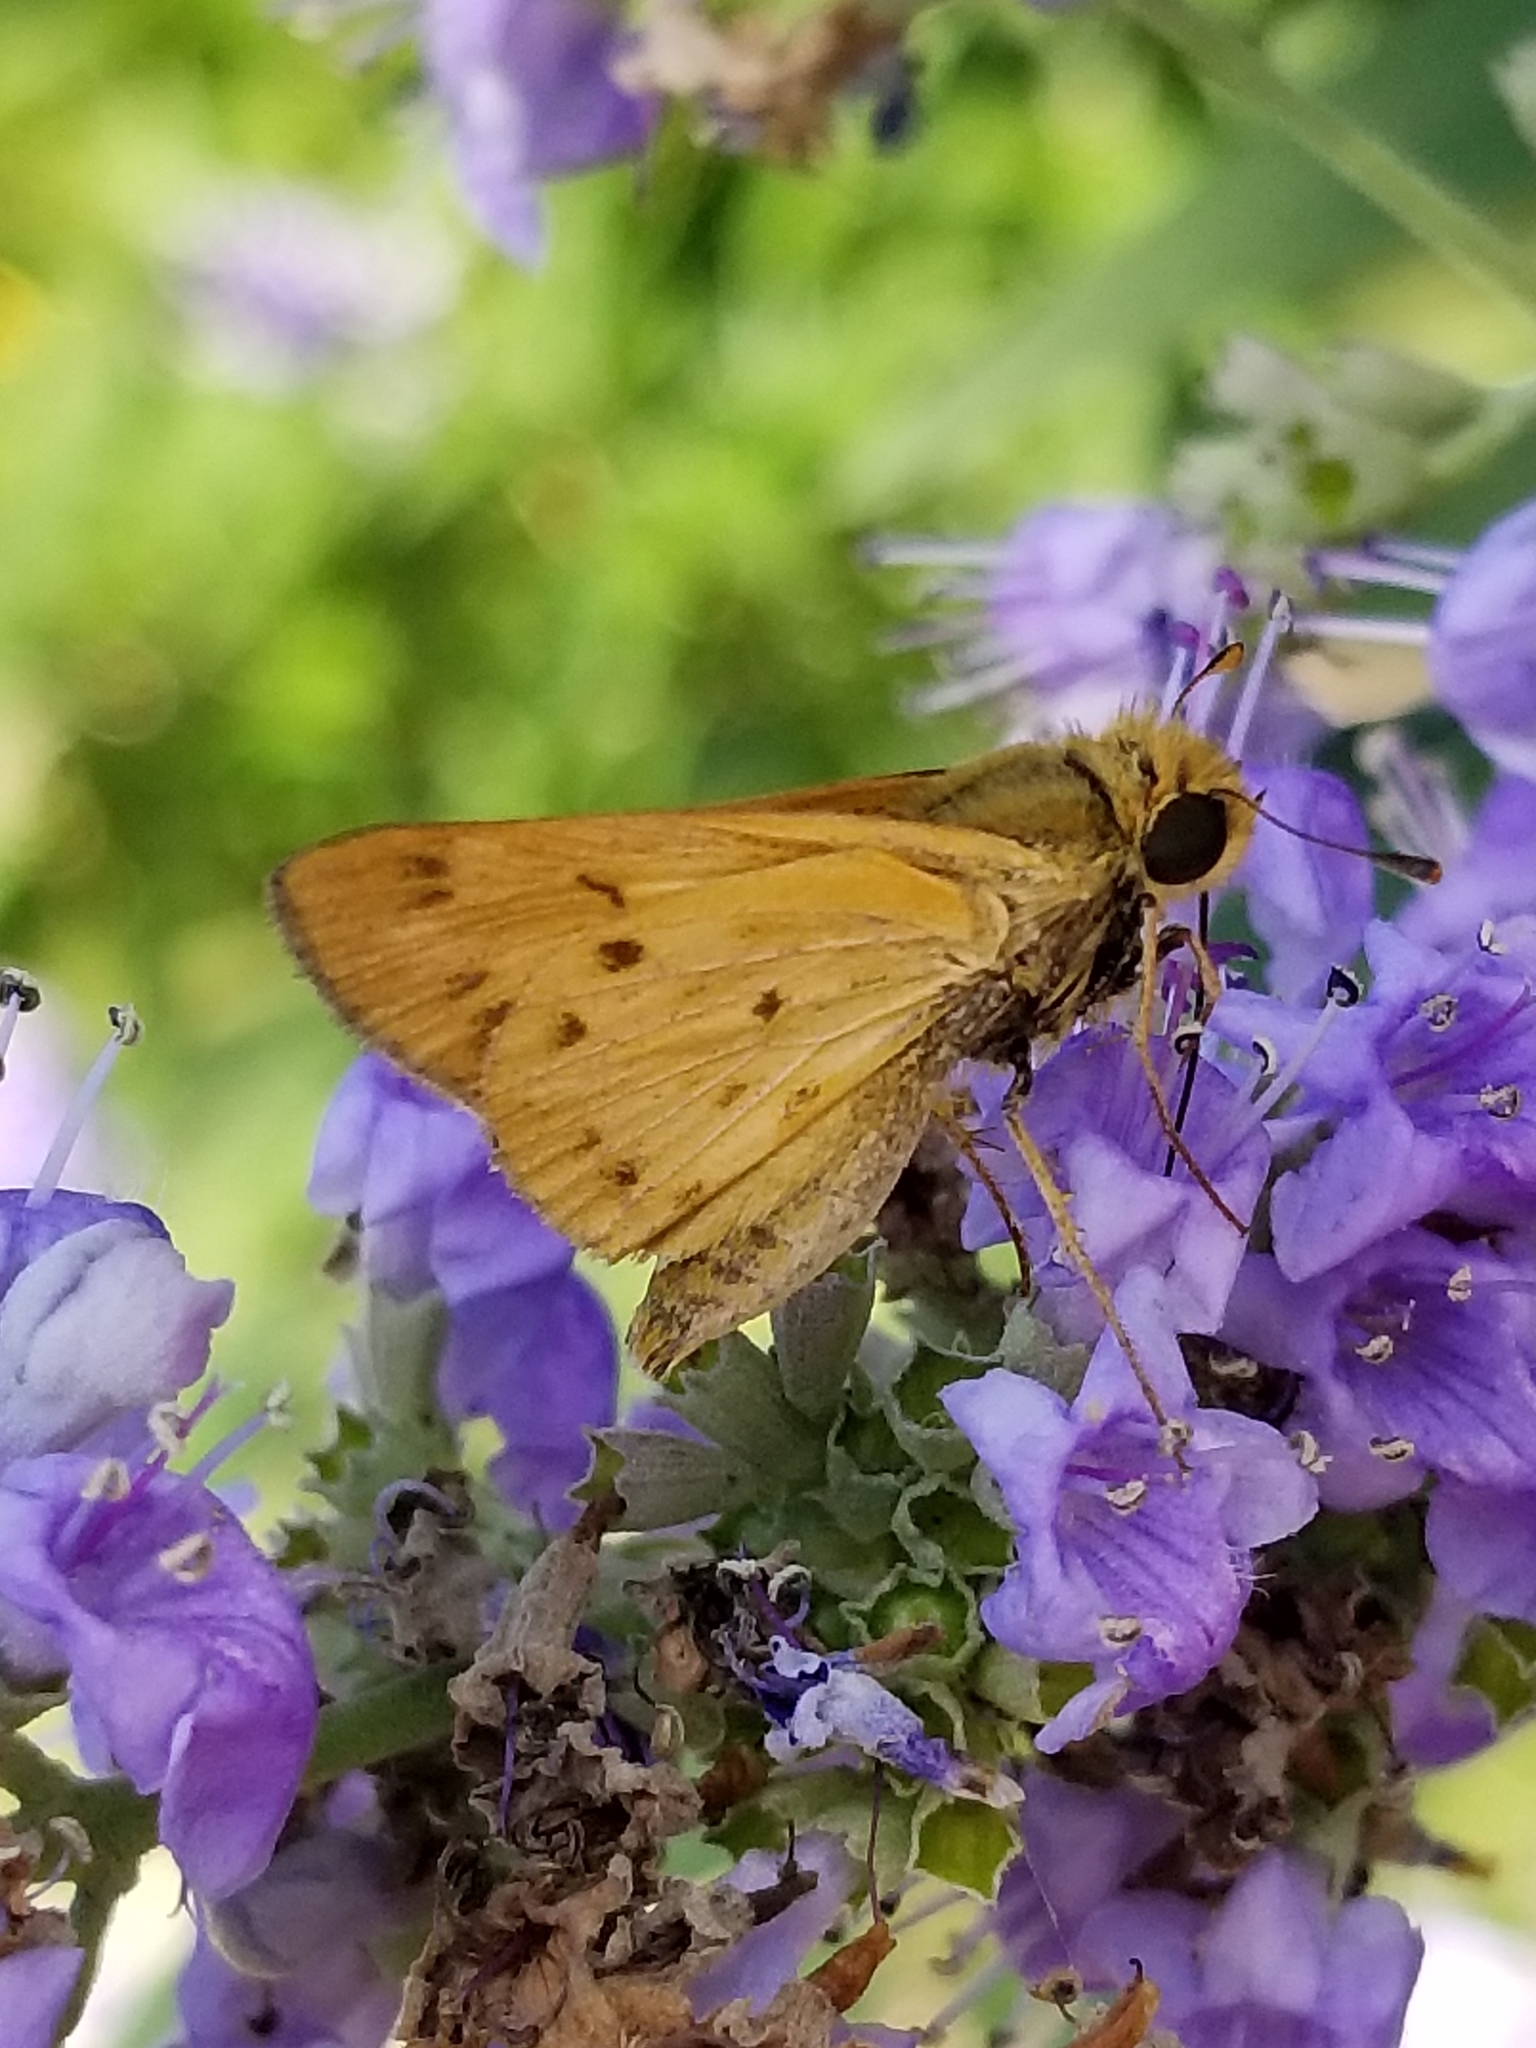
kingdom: Animalia
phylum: Arthropoda
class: Insecta
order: Lepidoptera
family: Hesperiidae
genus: Hylephila
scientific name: Hylephila phyleus
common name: Fiery skipper
